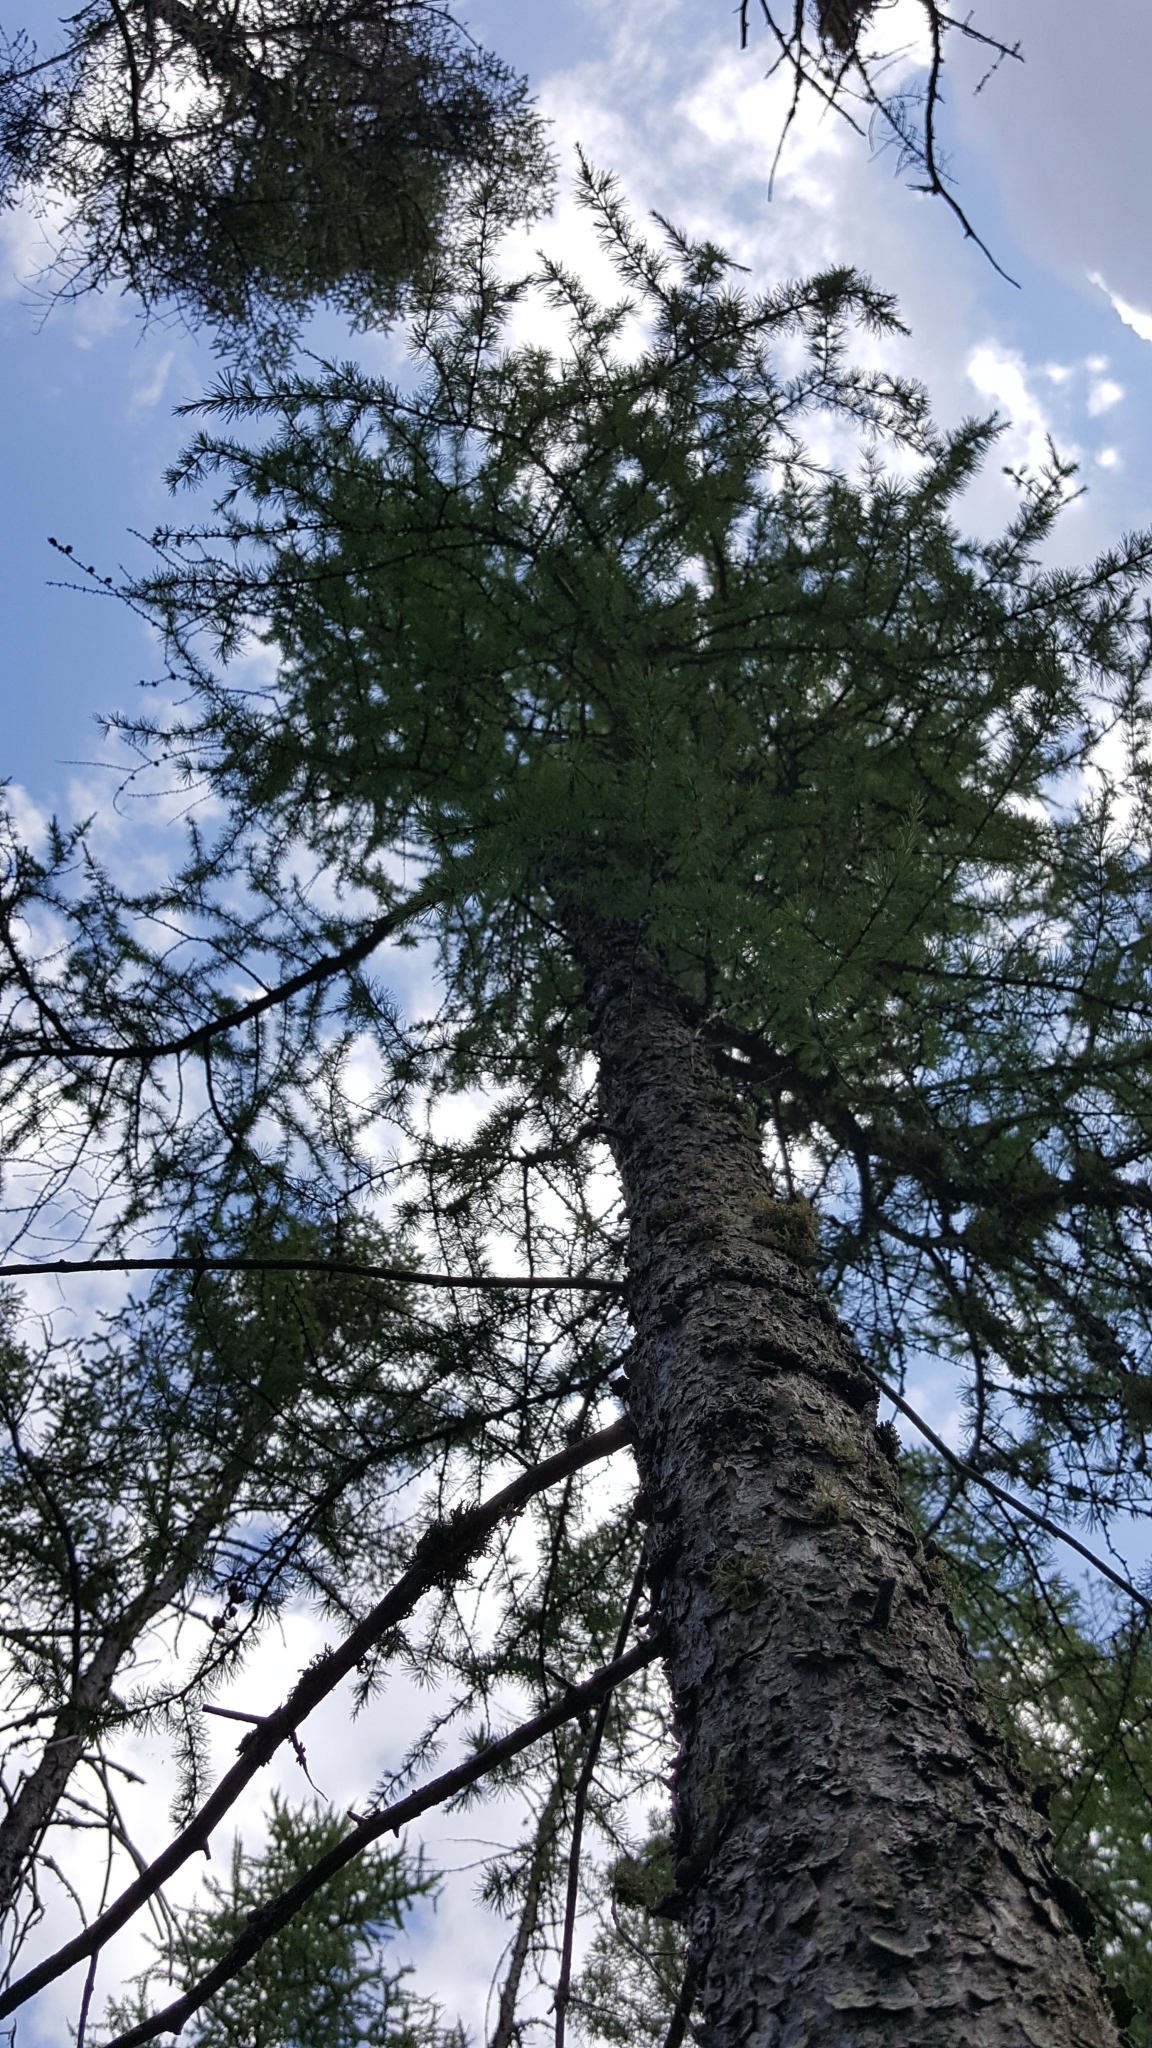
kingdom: Plantae
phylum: Tracheophyta
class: Pinopsida
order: Pinales
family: Pinaceae
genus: Larix
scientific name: Larix laricina
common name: American larch
